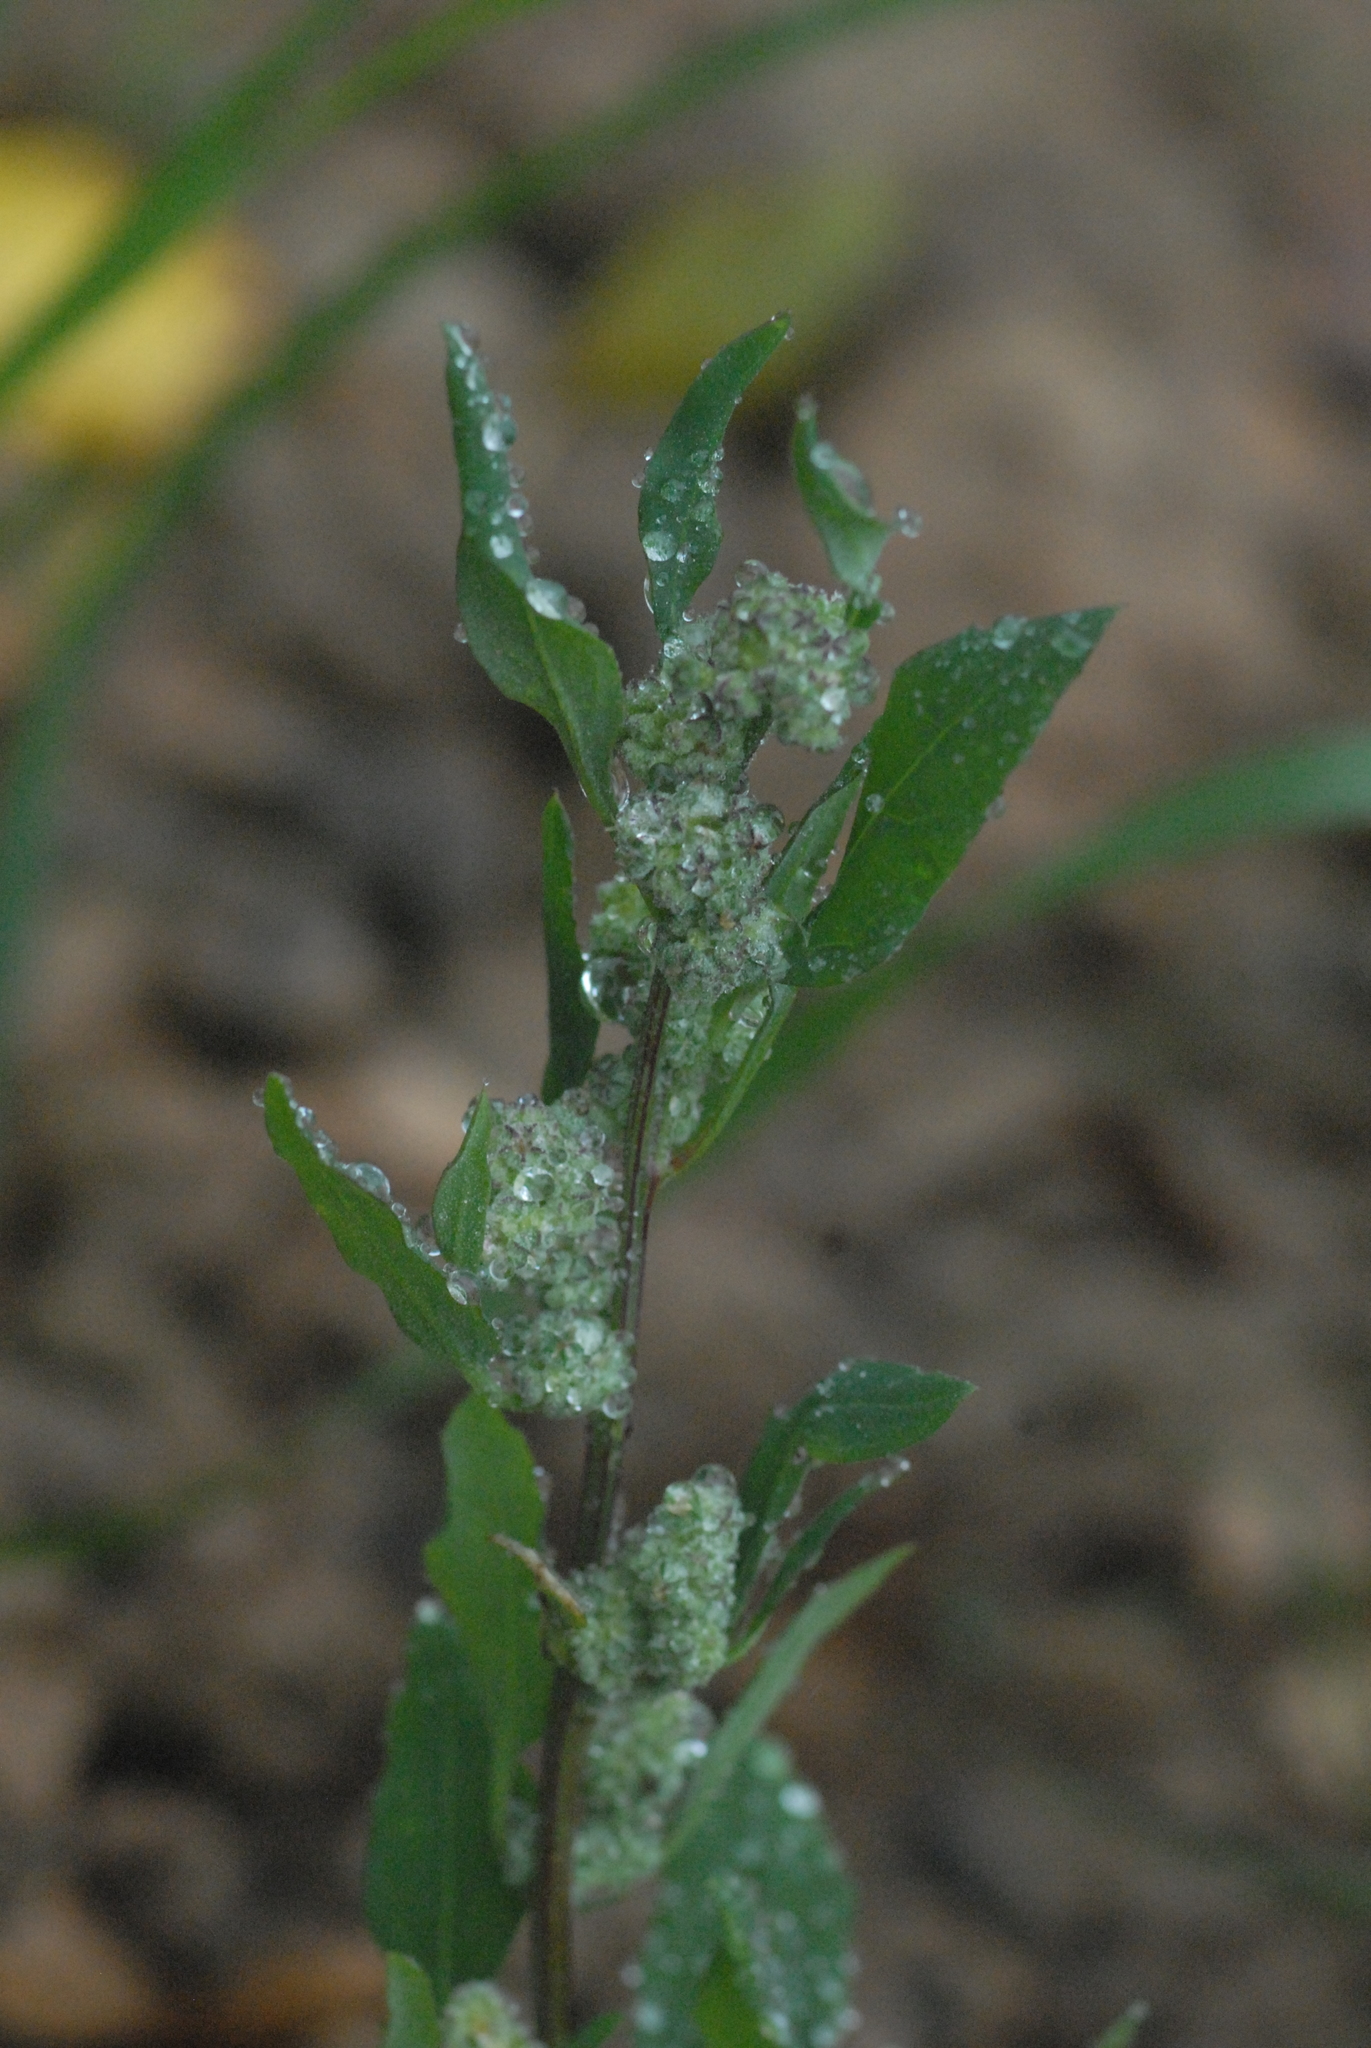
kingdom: Plantae
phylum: Tracheophyta
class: Magnoliopsida
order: Caryophyllales
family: Amaranthaceae
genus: Chenopodium
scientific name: Chenopodium album
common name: Fat-hen
